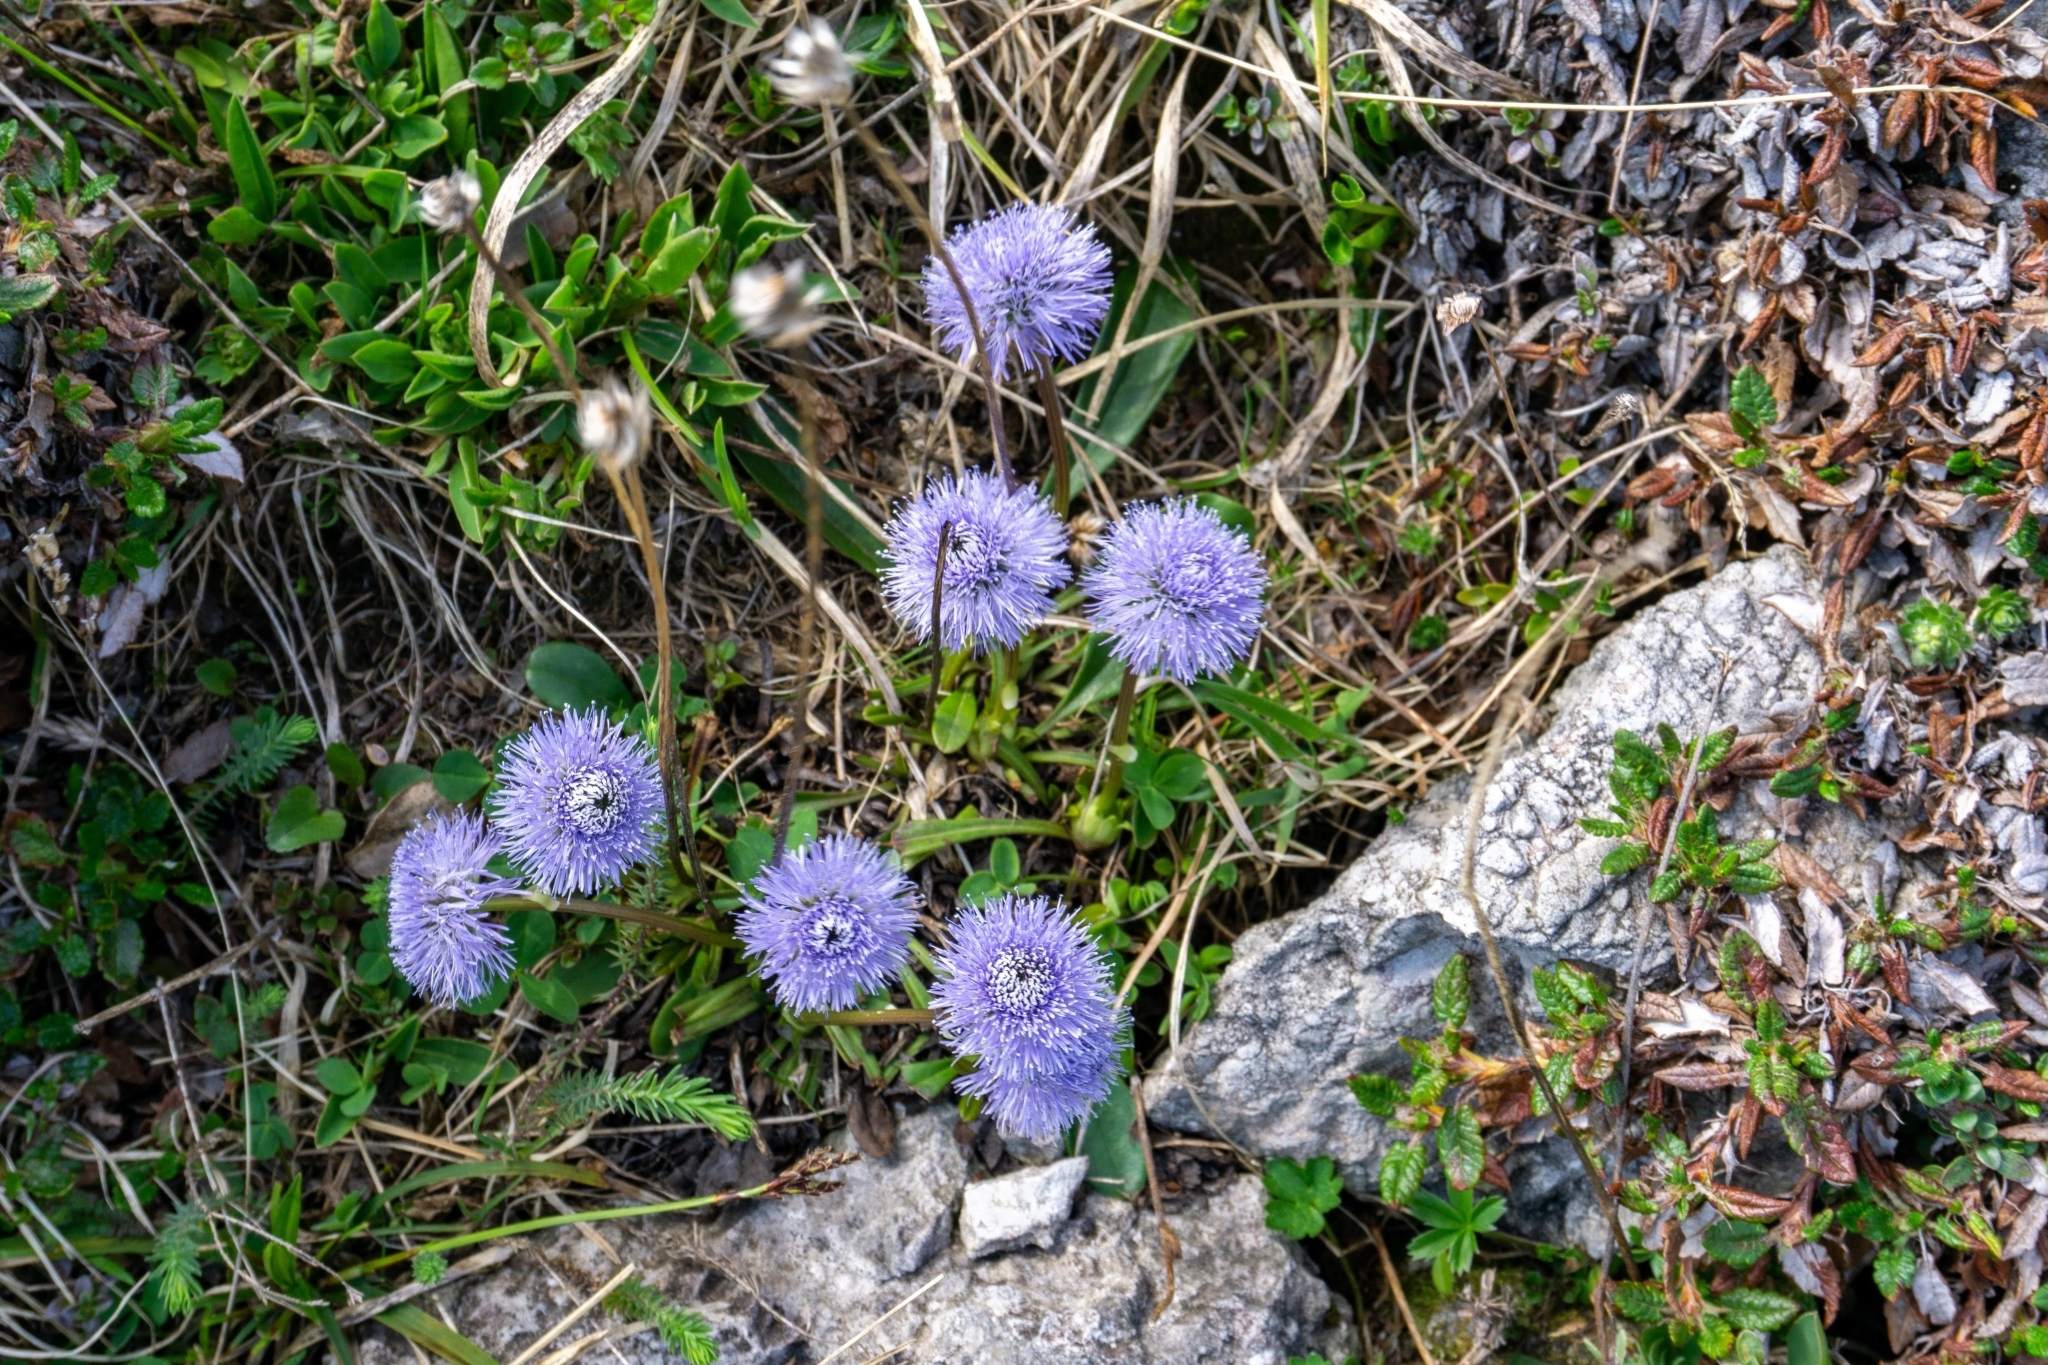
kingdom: Plantae
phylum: Tracheophyta
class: Magnoliopsida
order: Lamiales
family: Plantaginaceae
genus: Globularia
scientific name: Globularia nudicaulis
